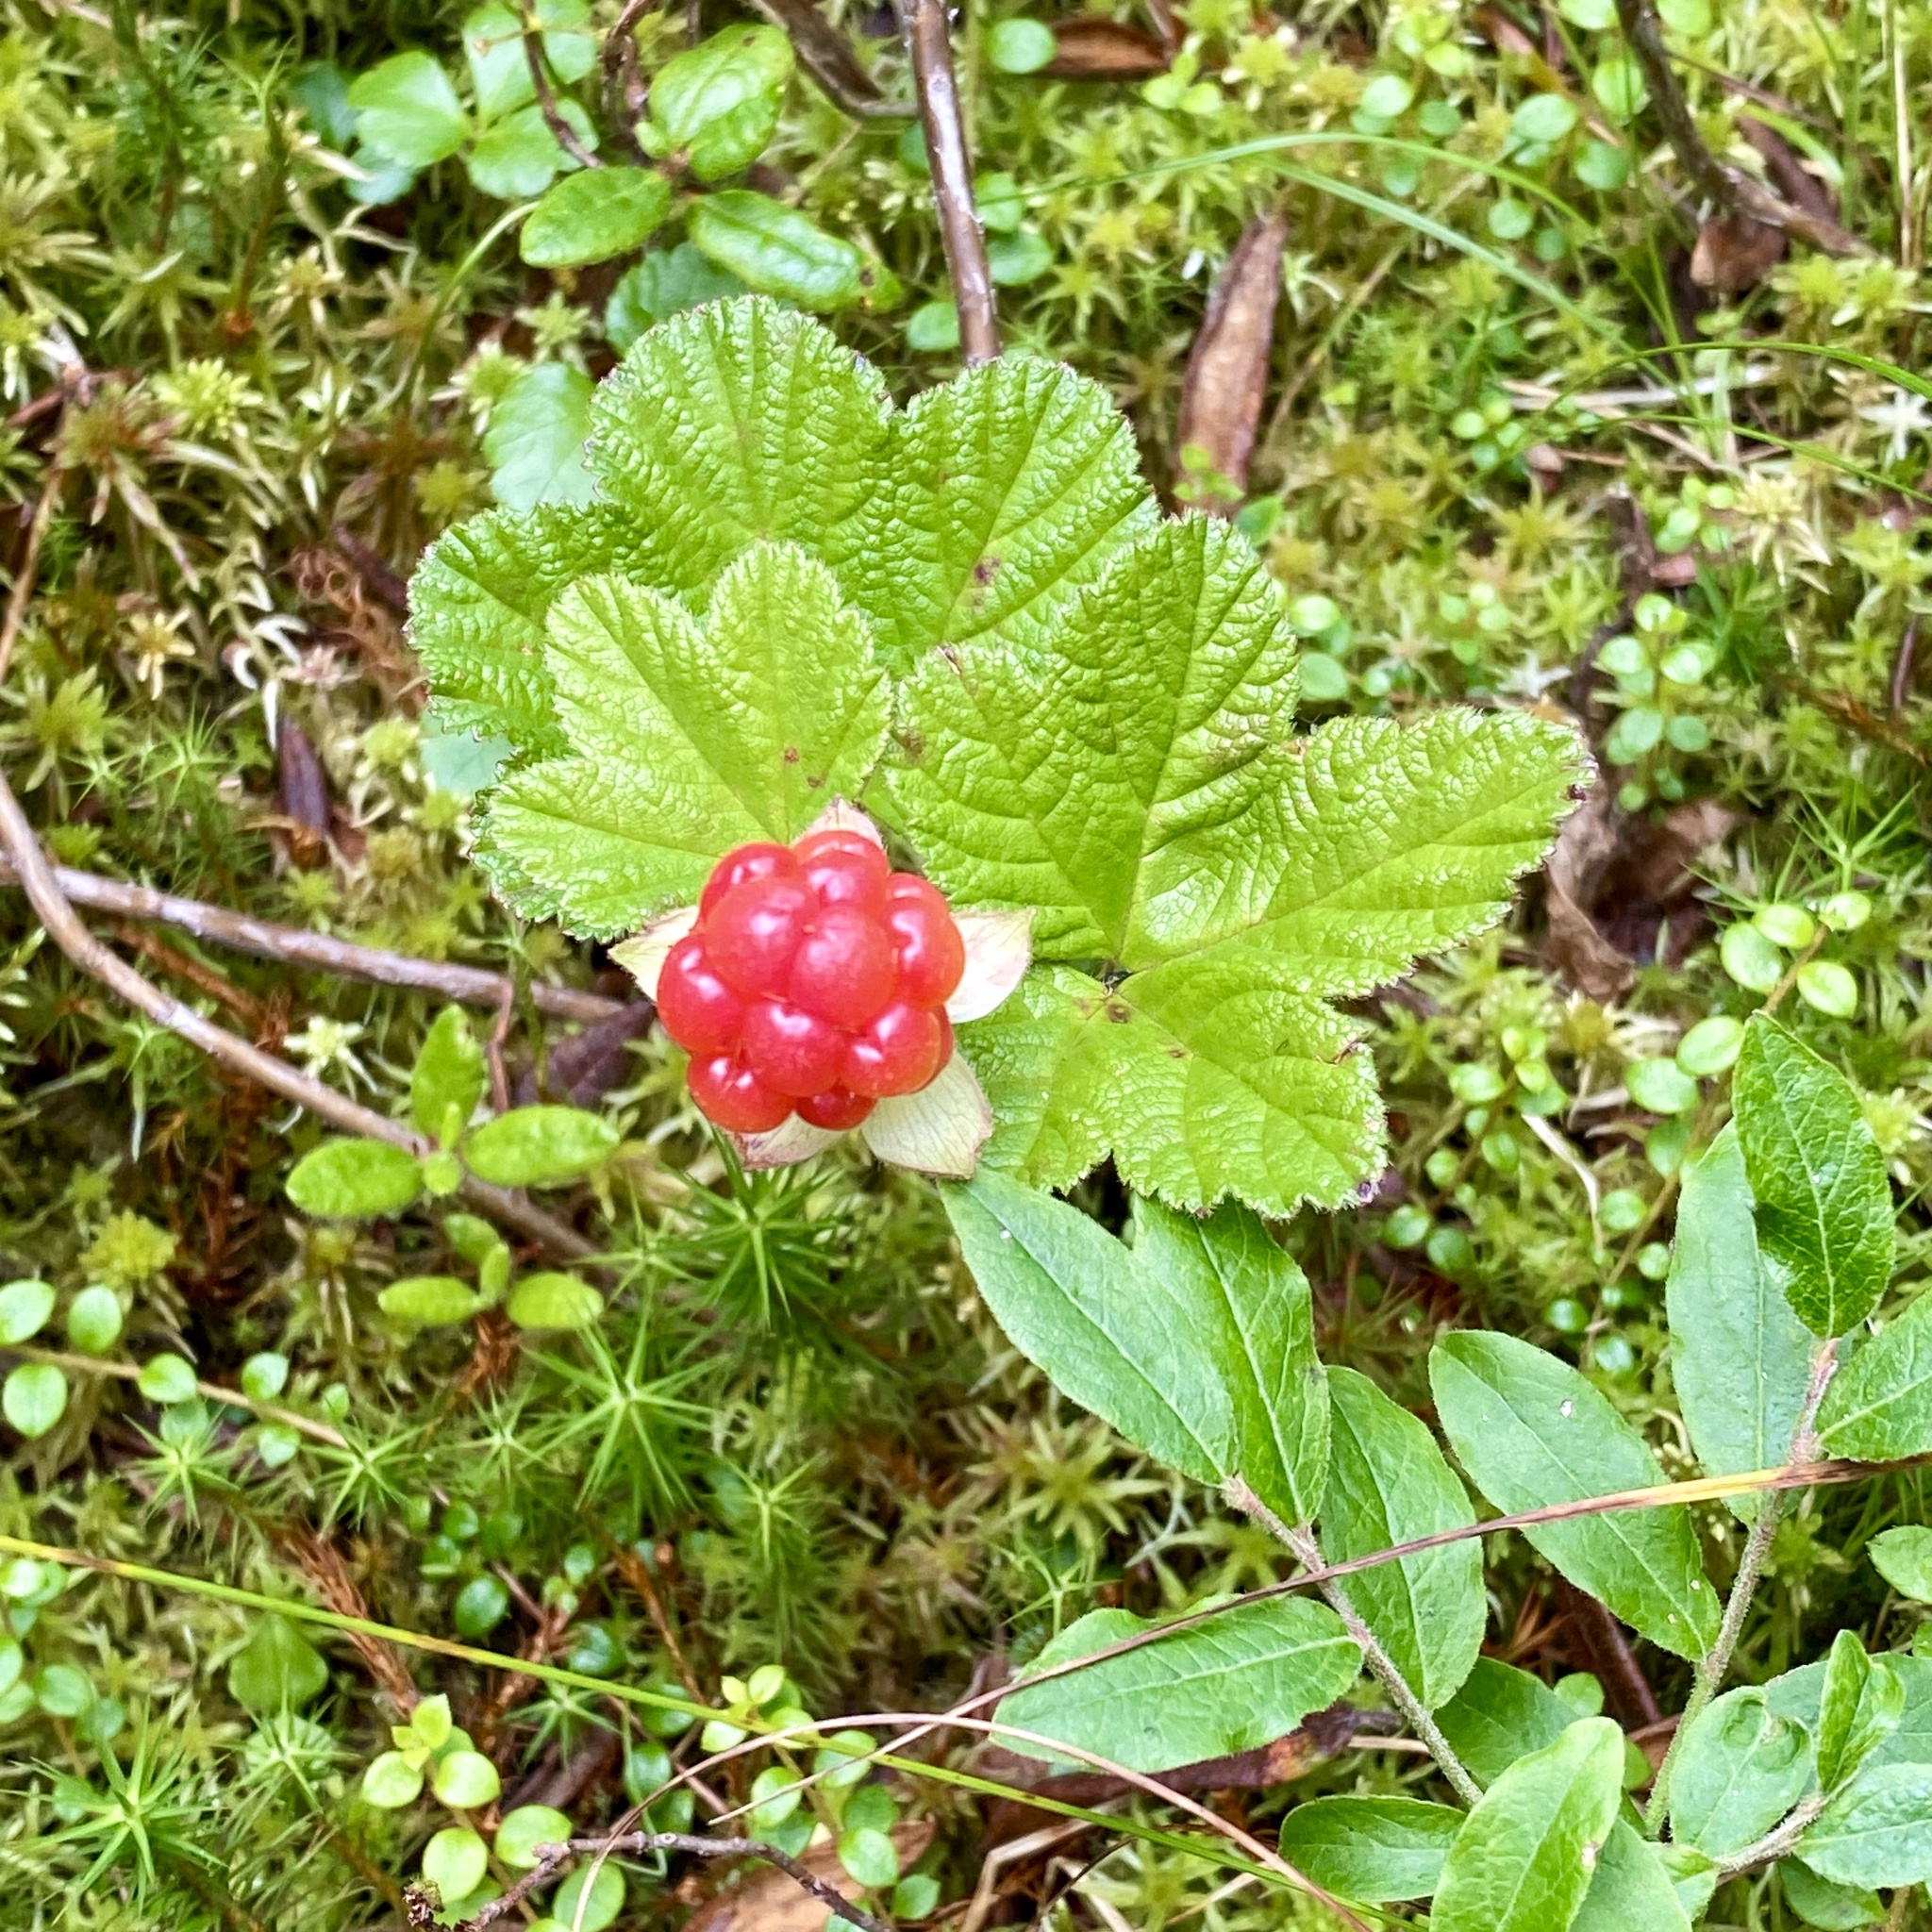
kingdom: Plantae
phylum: Tracheophyta
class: Magnoliopsida
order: Rosales
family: Rosaceae
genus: Rubus
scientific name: Rubus chamaemorus
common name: Cloudberry
